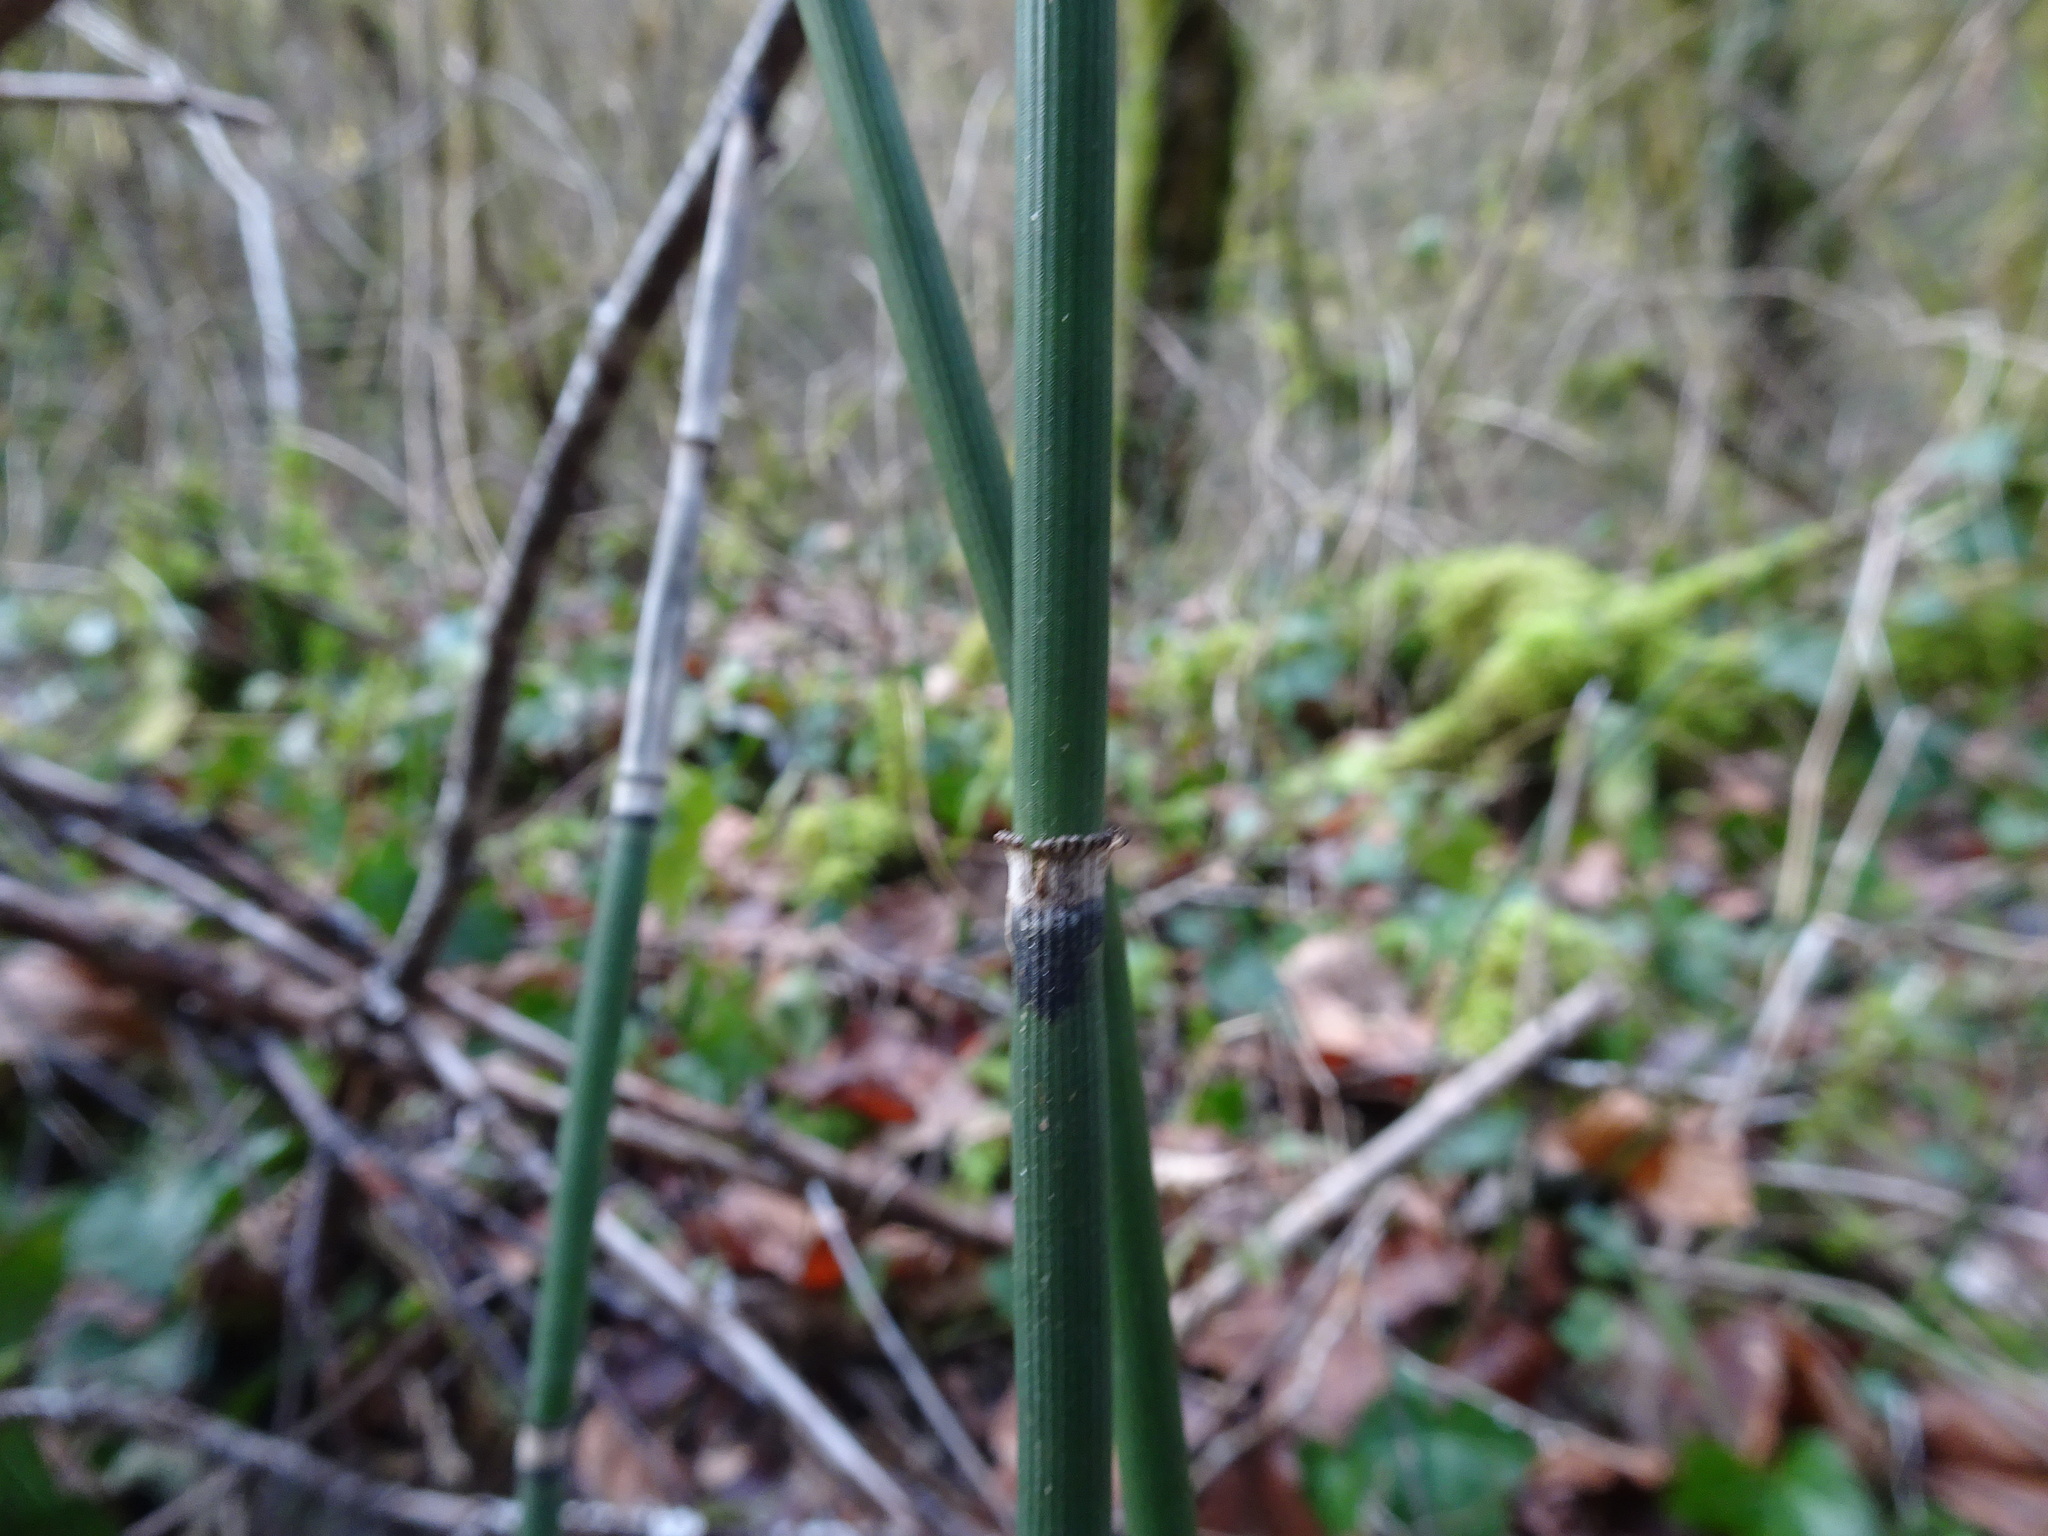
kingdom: Plantae
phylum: Tracheophyta
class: Polypodiopsida
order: Equisetales
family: Equisetaceae
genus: Equisetum
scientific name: Equisetum hyemale
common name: Rough horsetail
